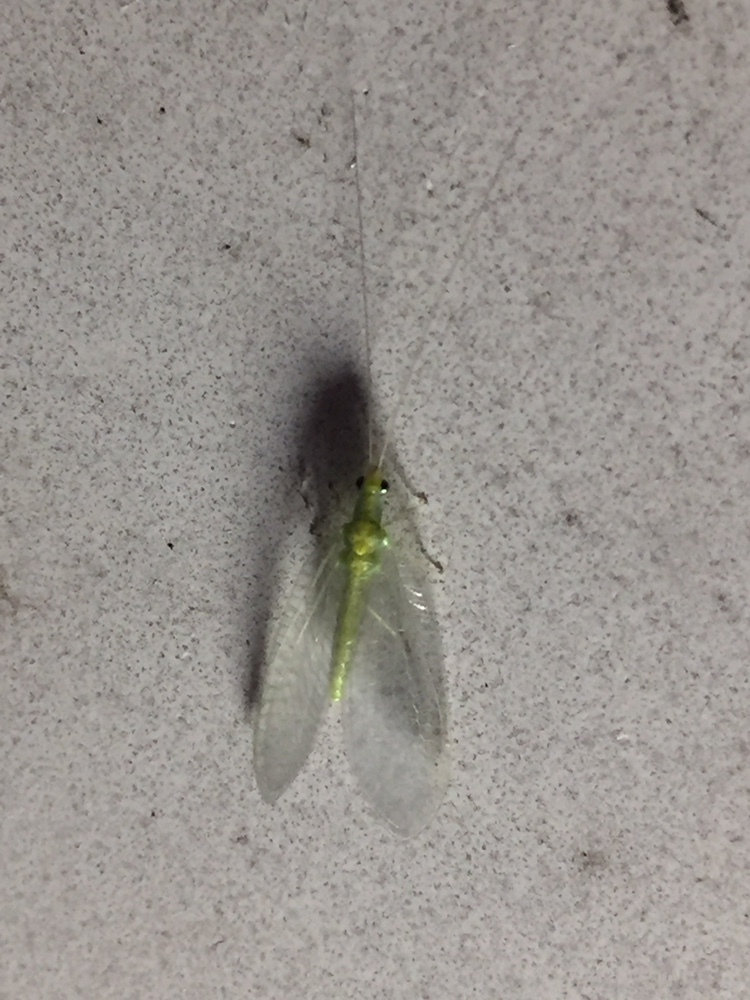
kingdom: Animalia
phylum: Arthropoda
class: Insecta
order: Neuroptera
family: Chrysopidae
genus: Mallada
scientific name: Mallada basalis
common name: Green lacewing
